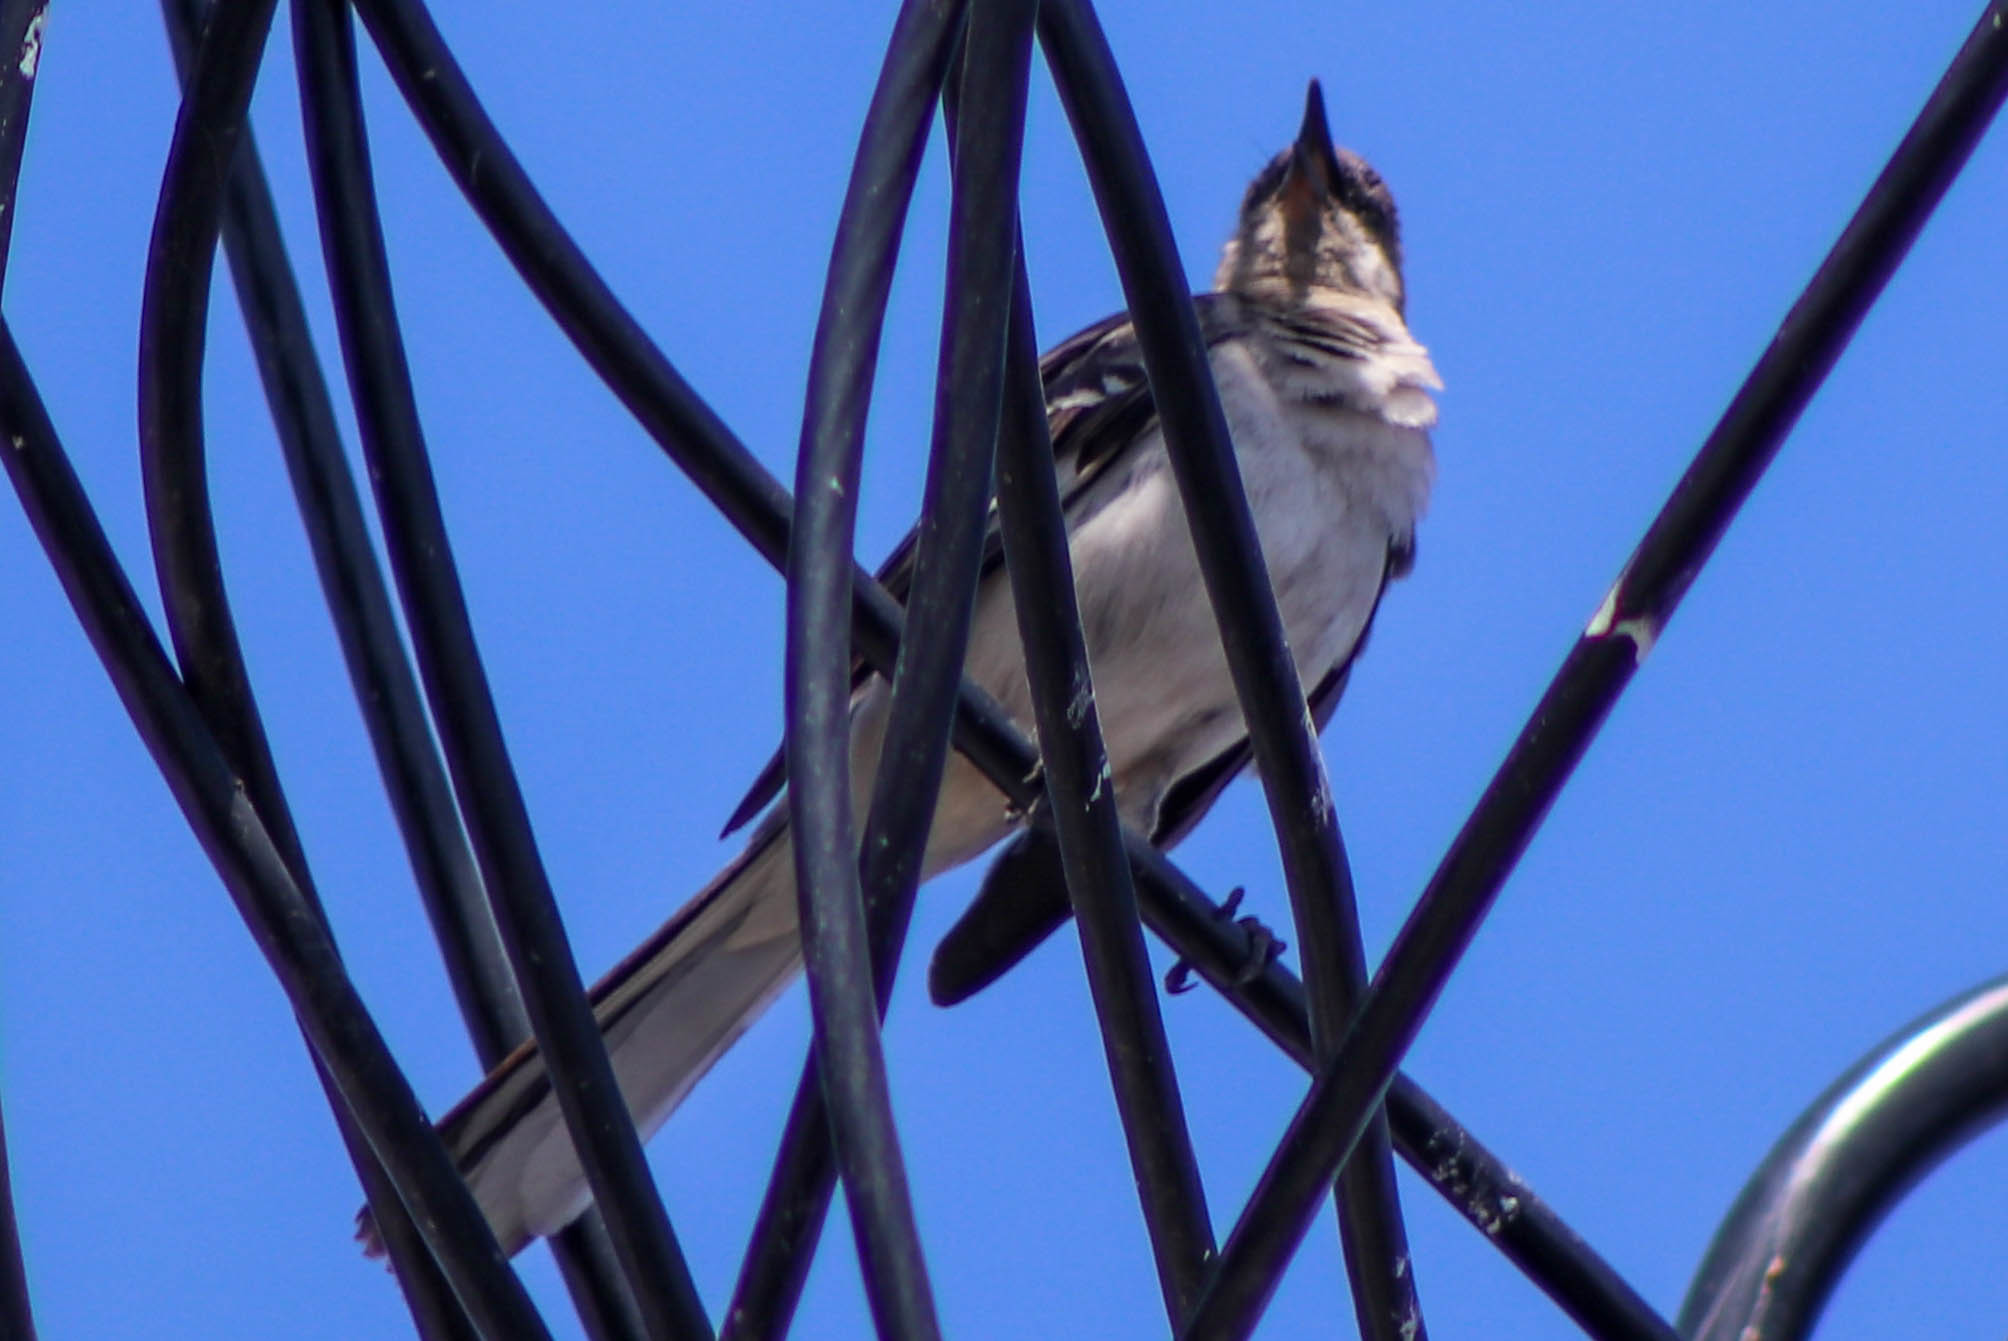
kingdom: Animalia
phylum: Chordata
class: Aves
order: Passeriformes
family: Mimidae
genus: Mimus
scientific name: Mimus polyglottos
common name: Northern mockingbird
